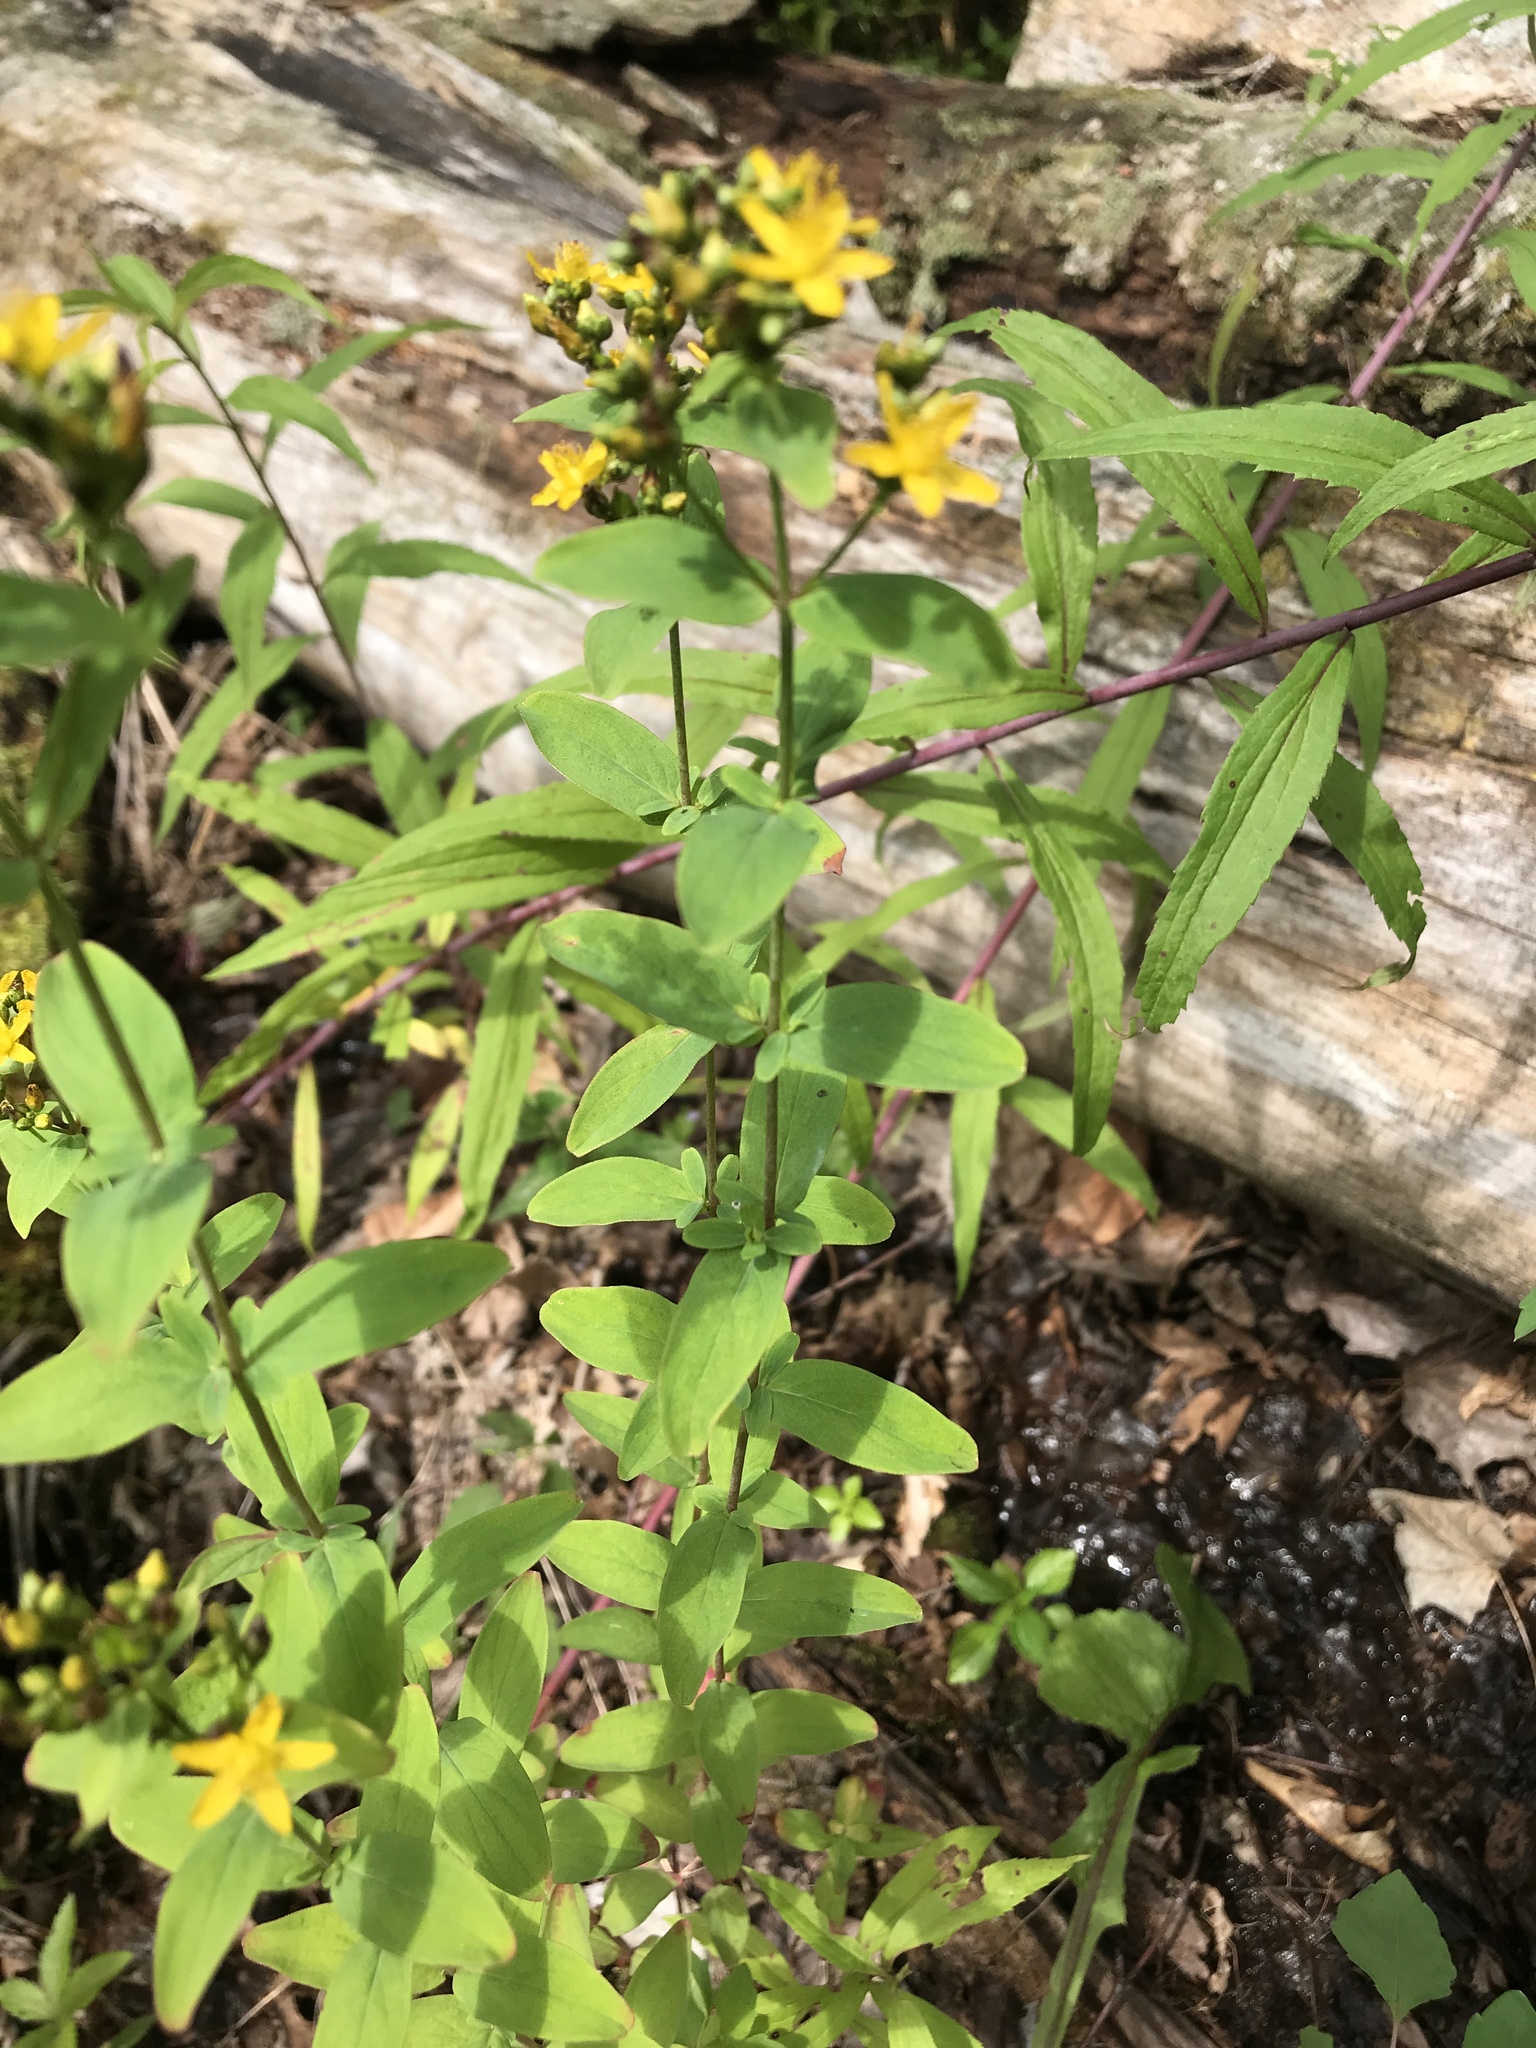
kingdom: Plantae
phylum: Tracheophyta
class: Magnoliopsida
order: Malpighiales
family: Hypericaceae
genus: Hypericum
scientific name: Hypericum punctatum
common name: Spotted st. john's-wort
